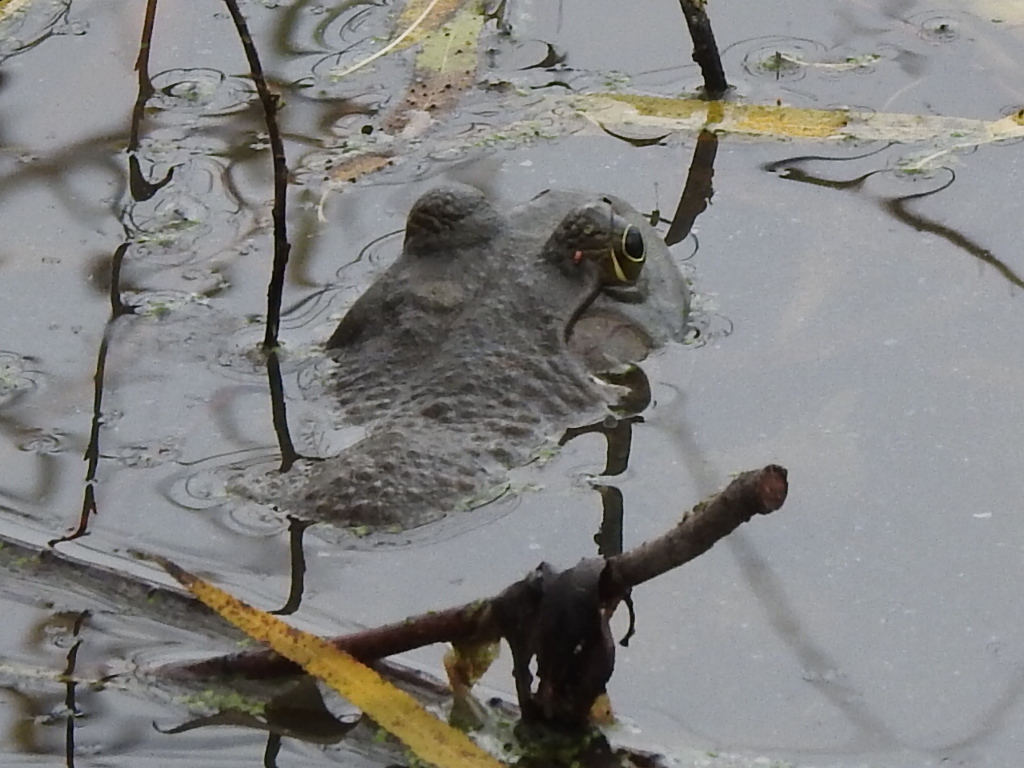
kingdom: Animalia
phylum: Chordata
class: Amphibia
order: Anura
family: Ranidae
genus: Lithobates
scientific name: Lithobates catesbeianus
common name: American bullfrog
